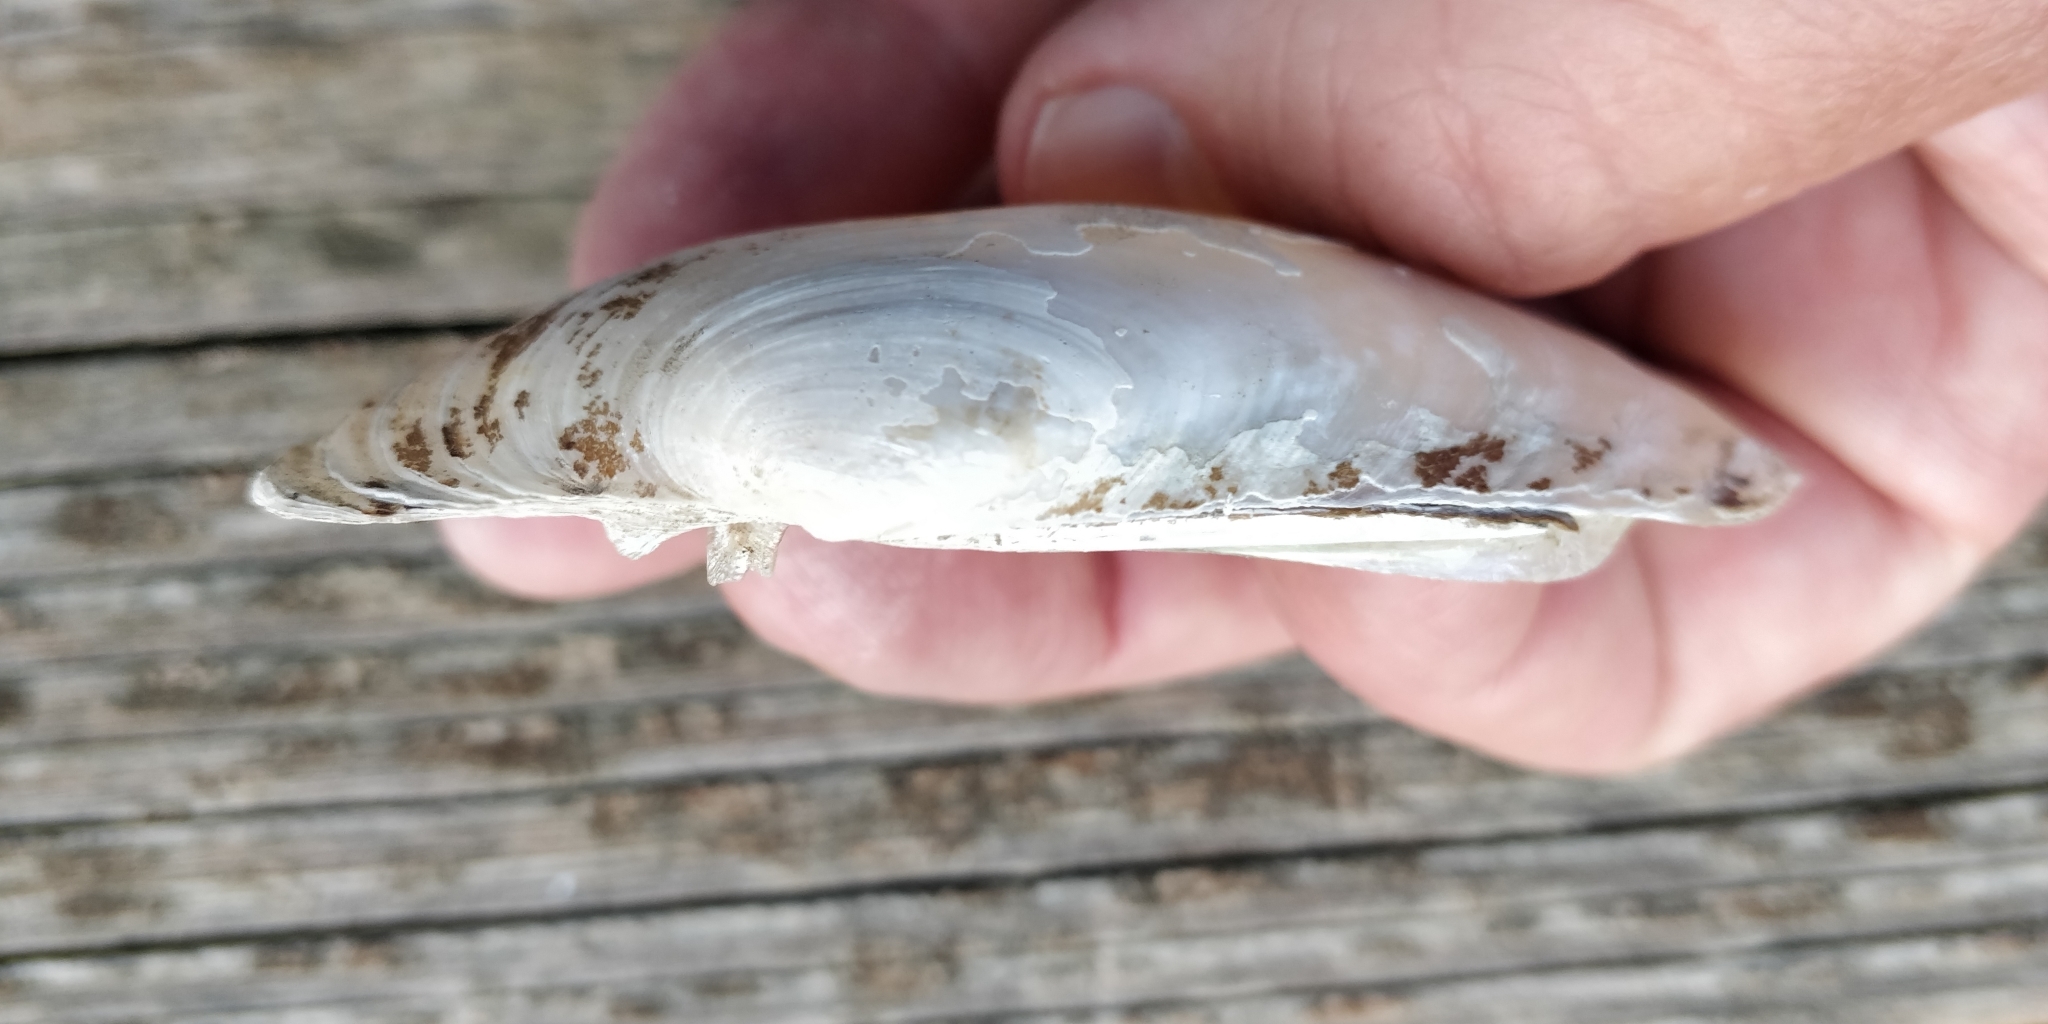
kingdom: Animalia
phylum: Mollusca
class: Bivalvia
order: Unionida
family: Unionidae
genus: Lampsilis
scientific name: Lampsilis siliquoidea
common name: Fatmucket
